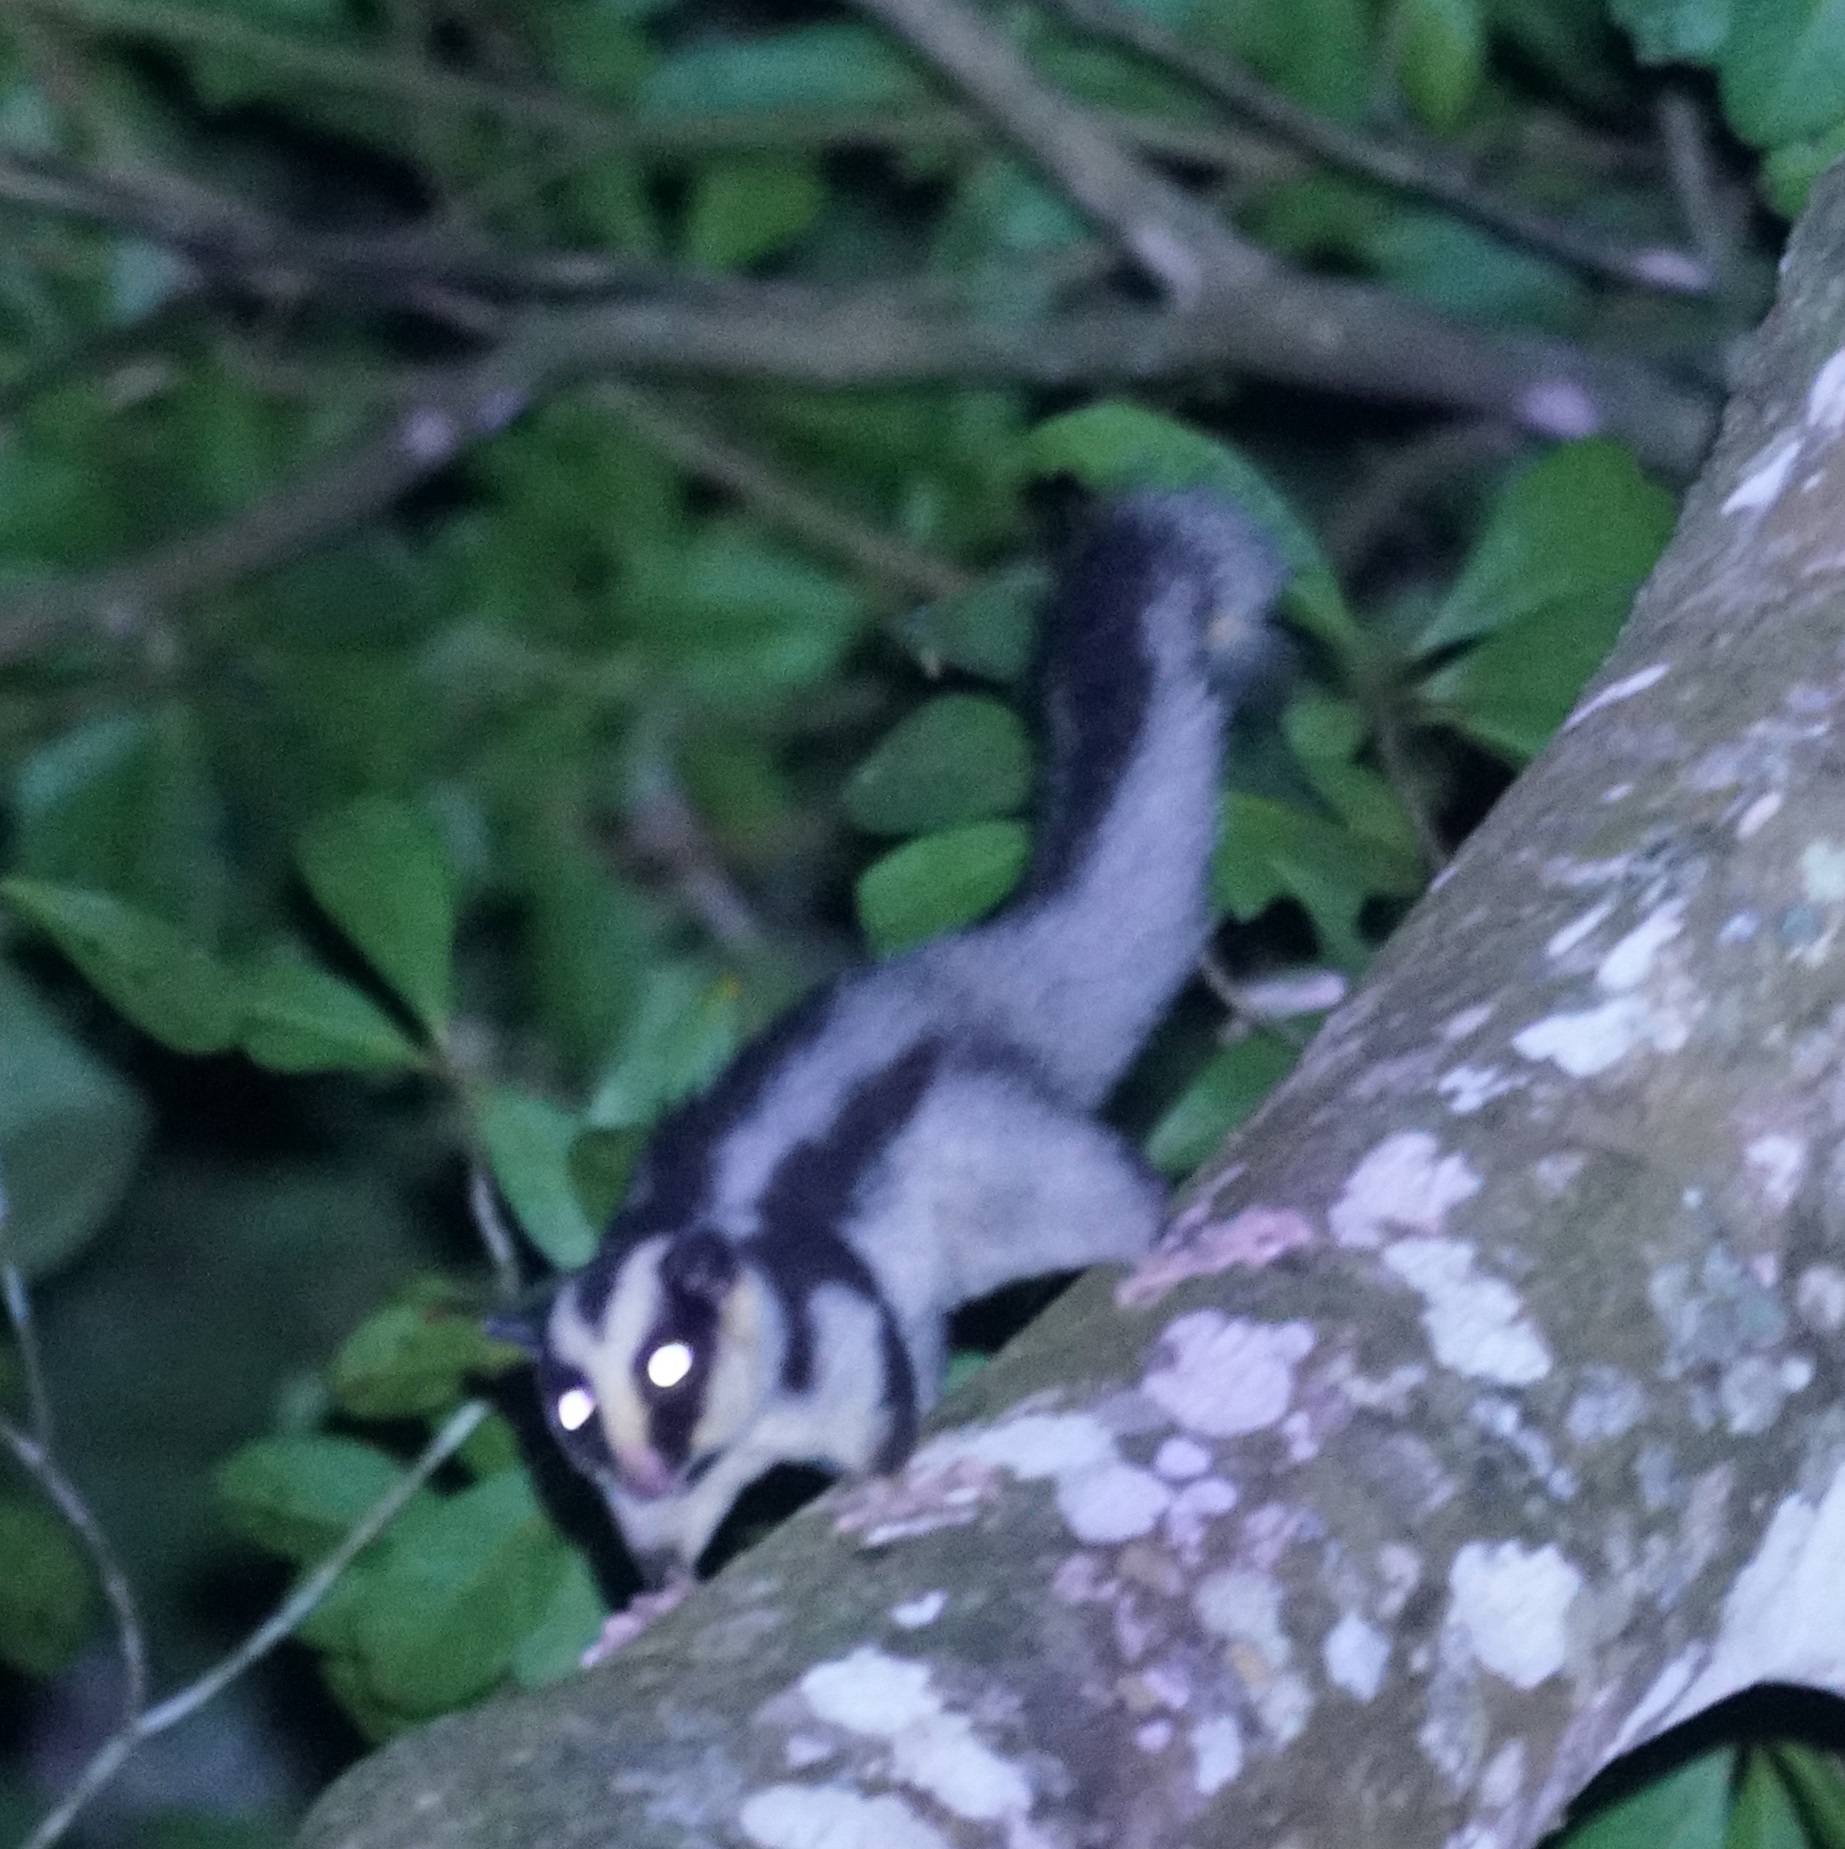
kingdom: Animalia
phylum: Chordata
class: Mammalia
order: Diprotodontia
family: Petauridae
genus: Dactylopsila
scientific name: Dactylopsila trivirgata
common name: Striped possum
